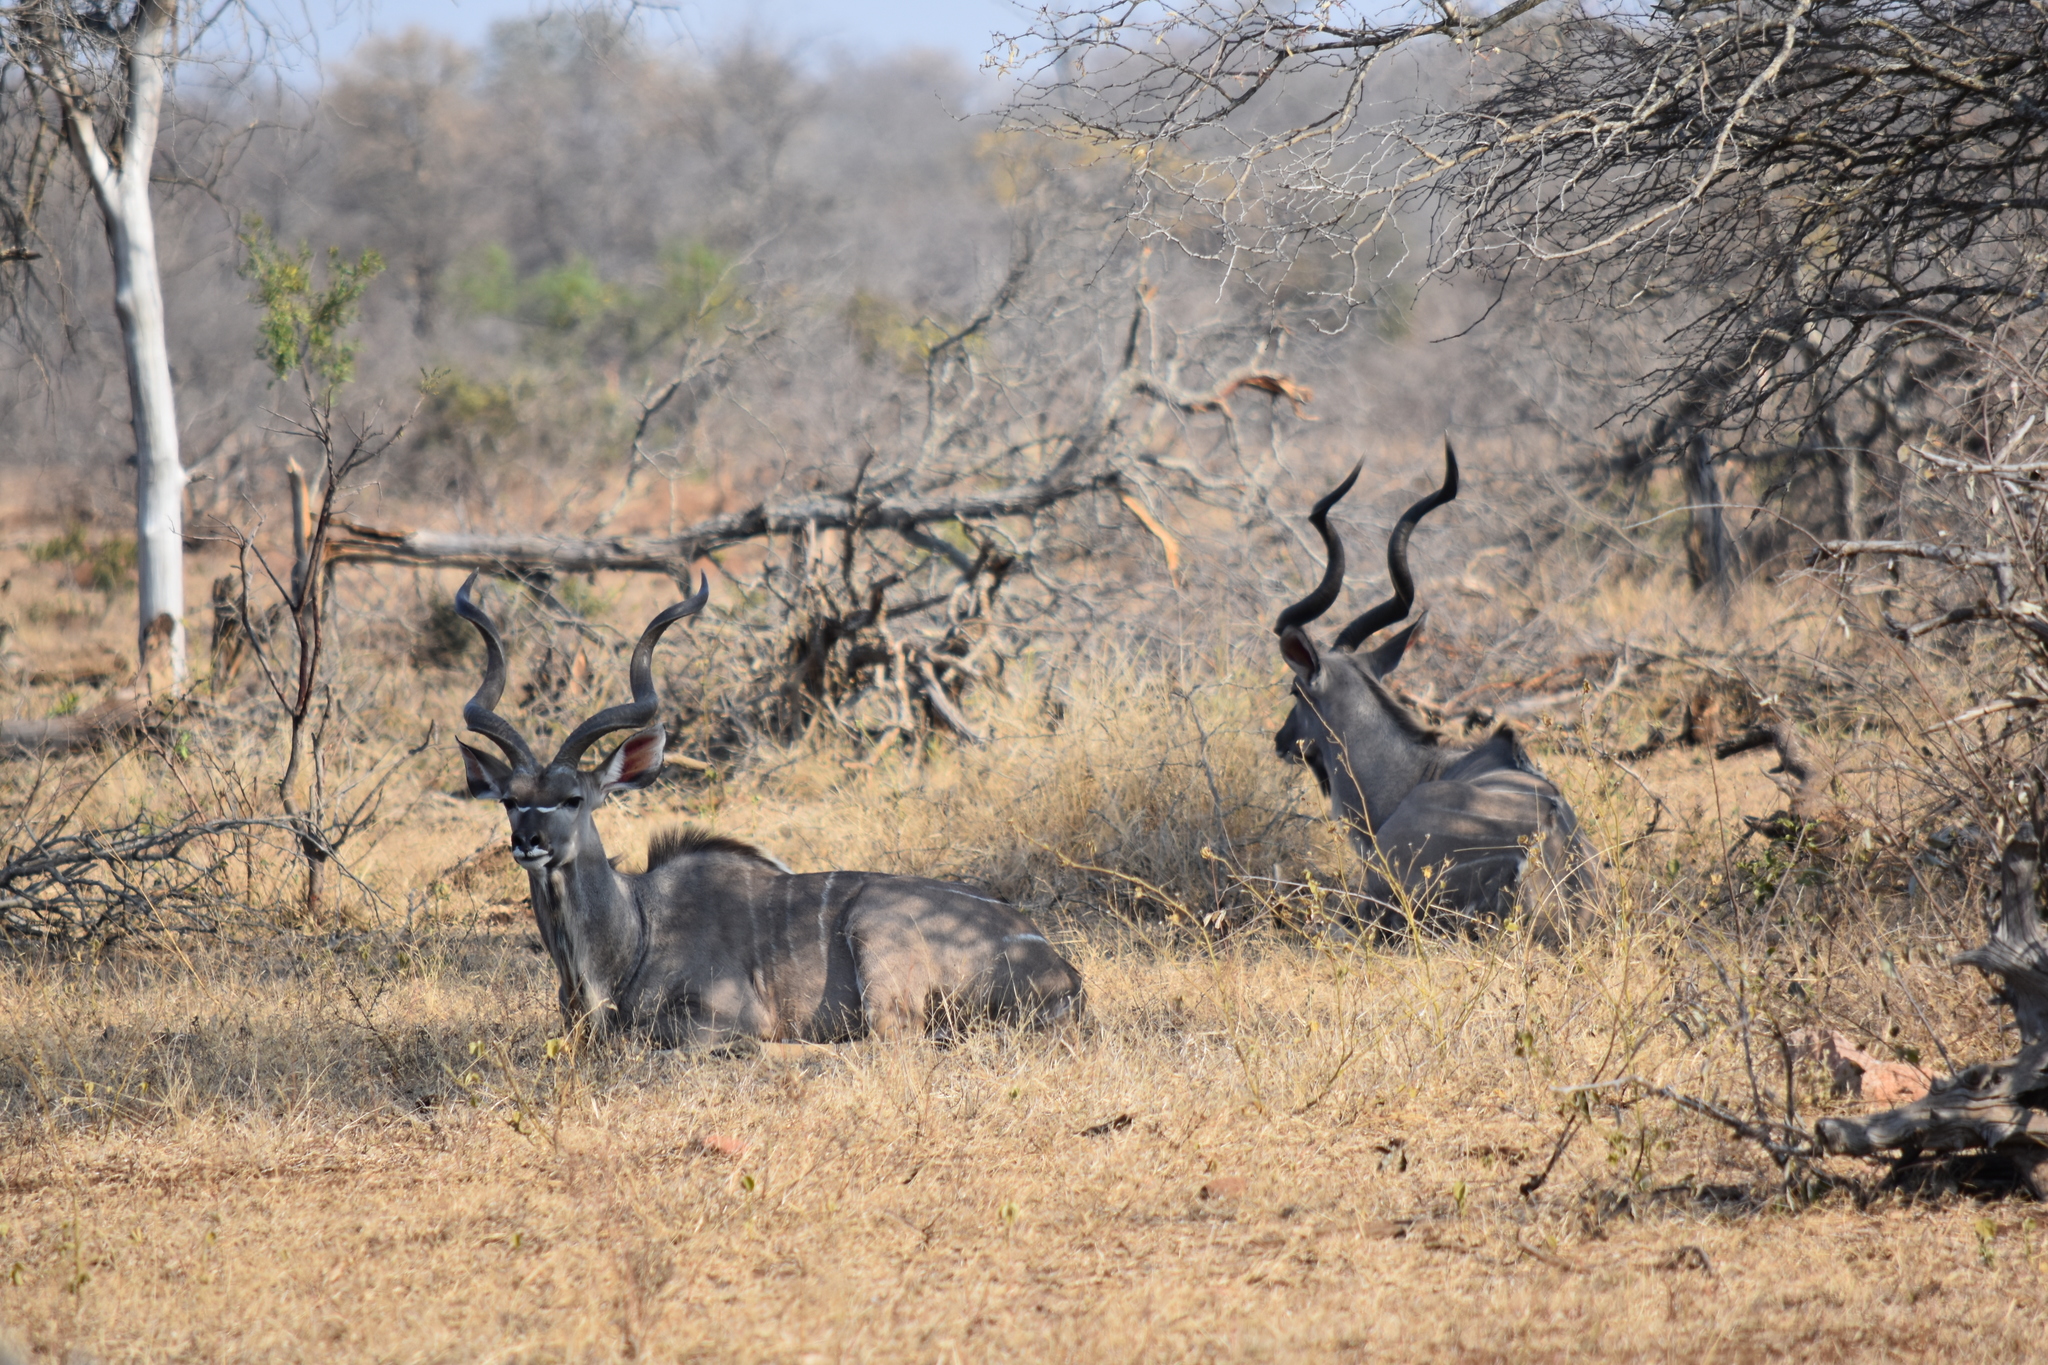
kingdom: Animalia
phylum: Chordata
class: Mammalia
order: Artiodactyla
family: Bovidae
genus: Tragelaphus
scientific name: Tragelaphus strepsiceros
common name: Greater kudu
